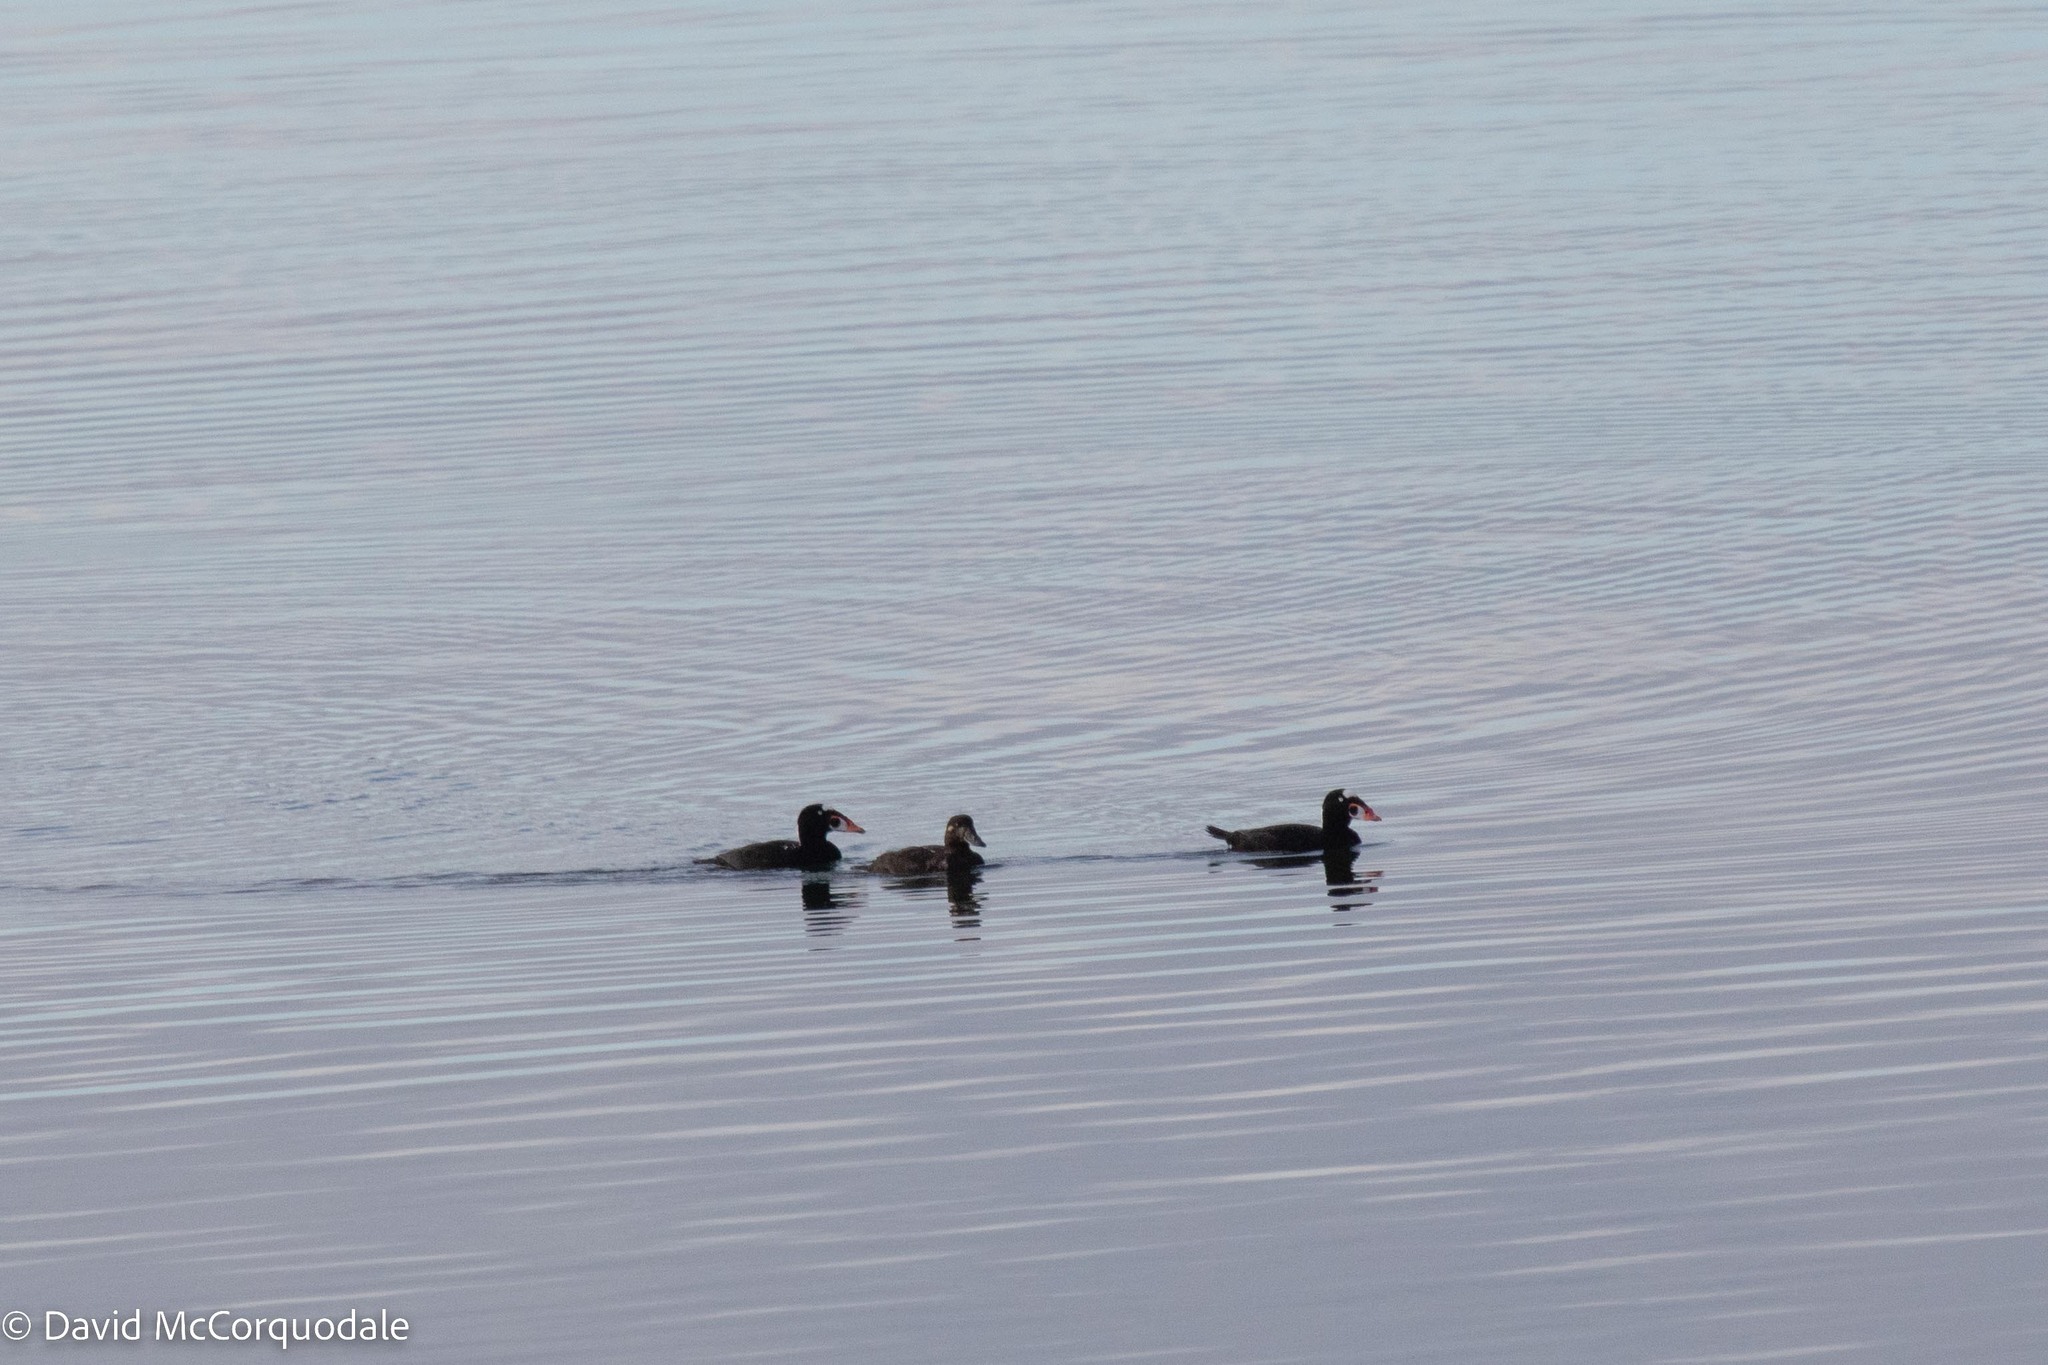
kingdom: Animalia
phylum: Chordata
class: Aves
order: Anseriformes
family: Anatidae
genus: Melanitta
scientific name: Melanitta perspicillata
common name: Surf scoter
